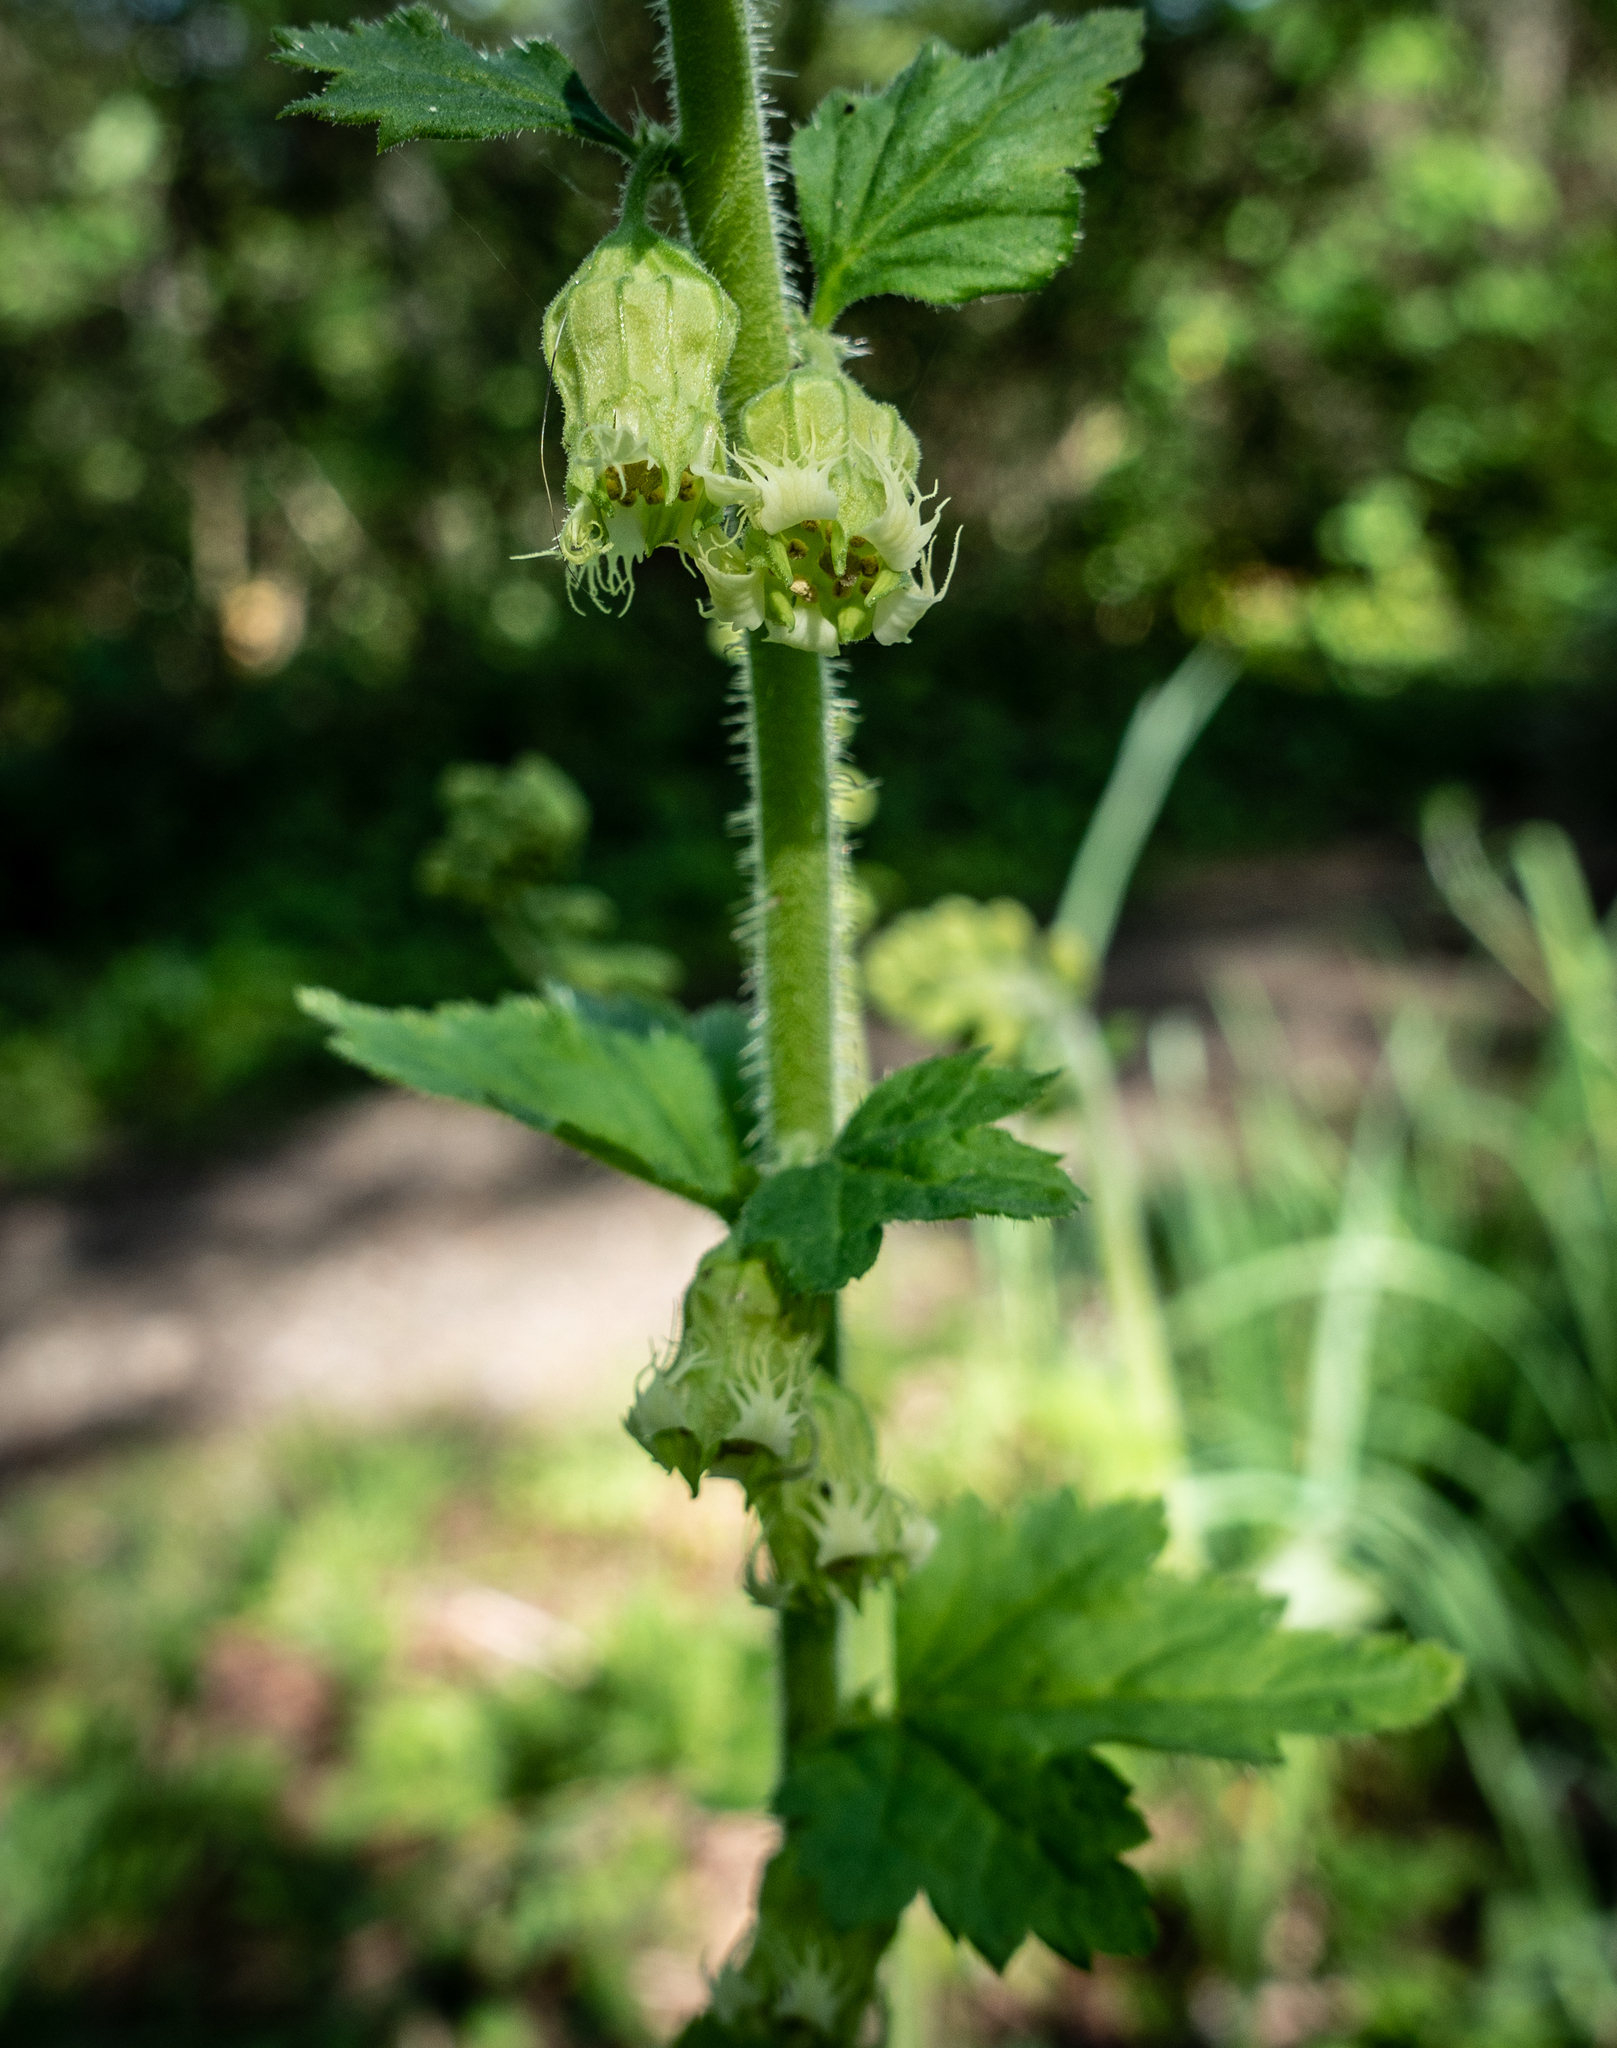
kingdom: Plantae
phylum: Tracheophyta
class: Magnoliopsida
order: Saxifragales
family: Saxifragaceae
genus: Tellima
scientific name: Tellima grandiflora
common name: Fringecups
